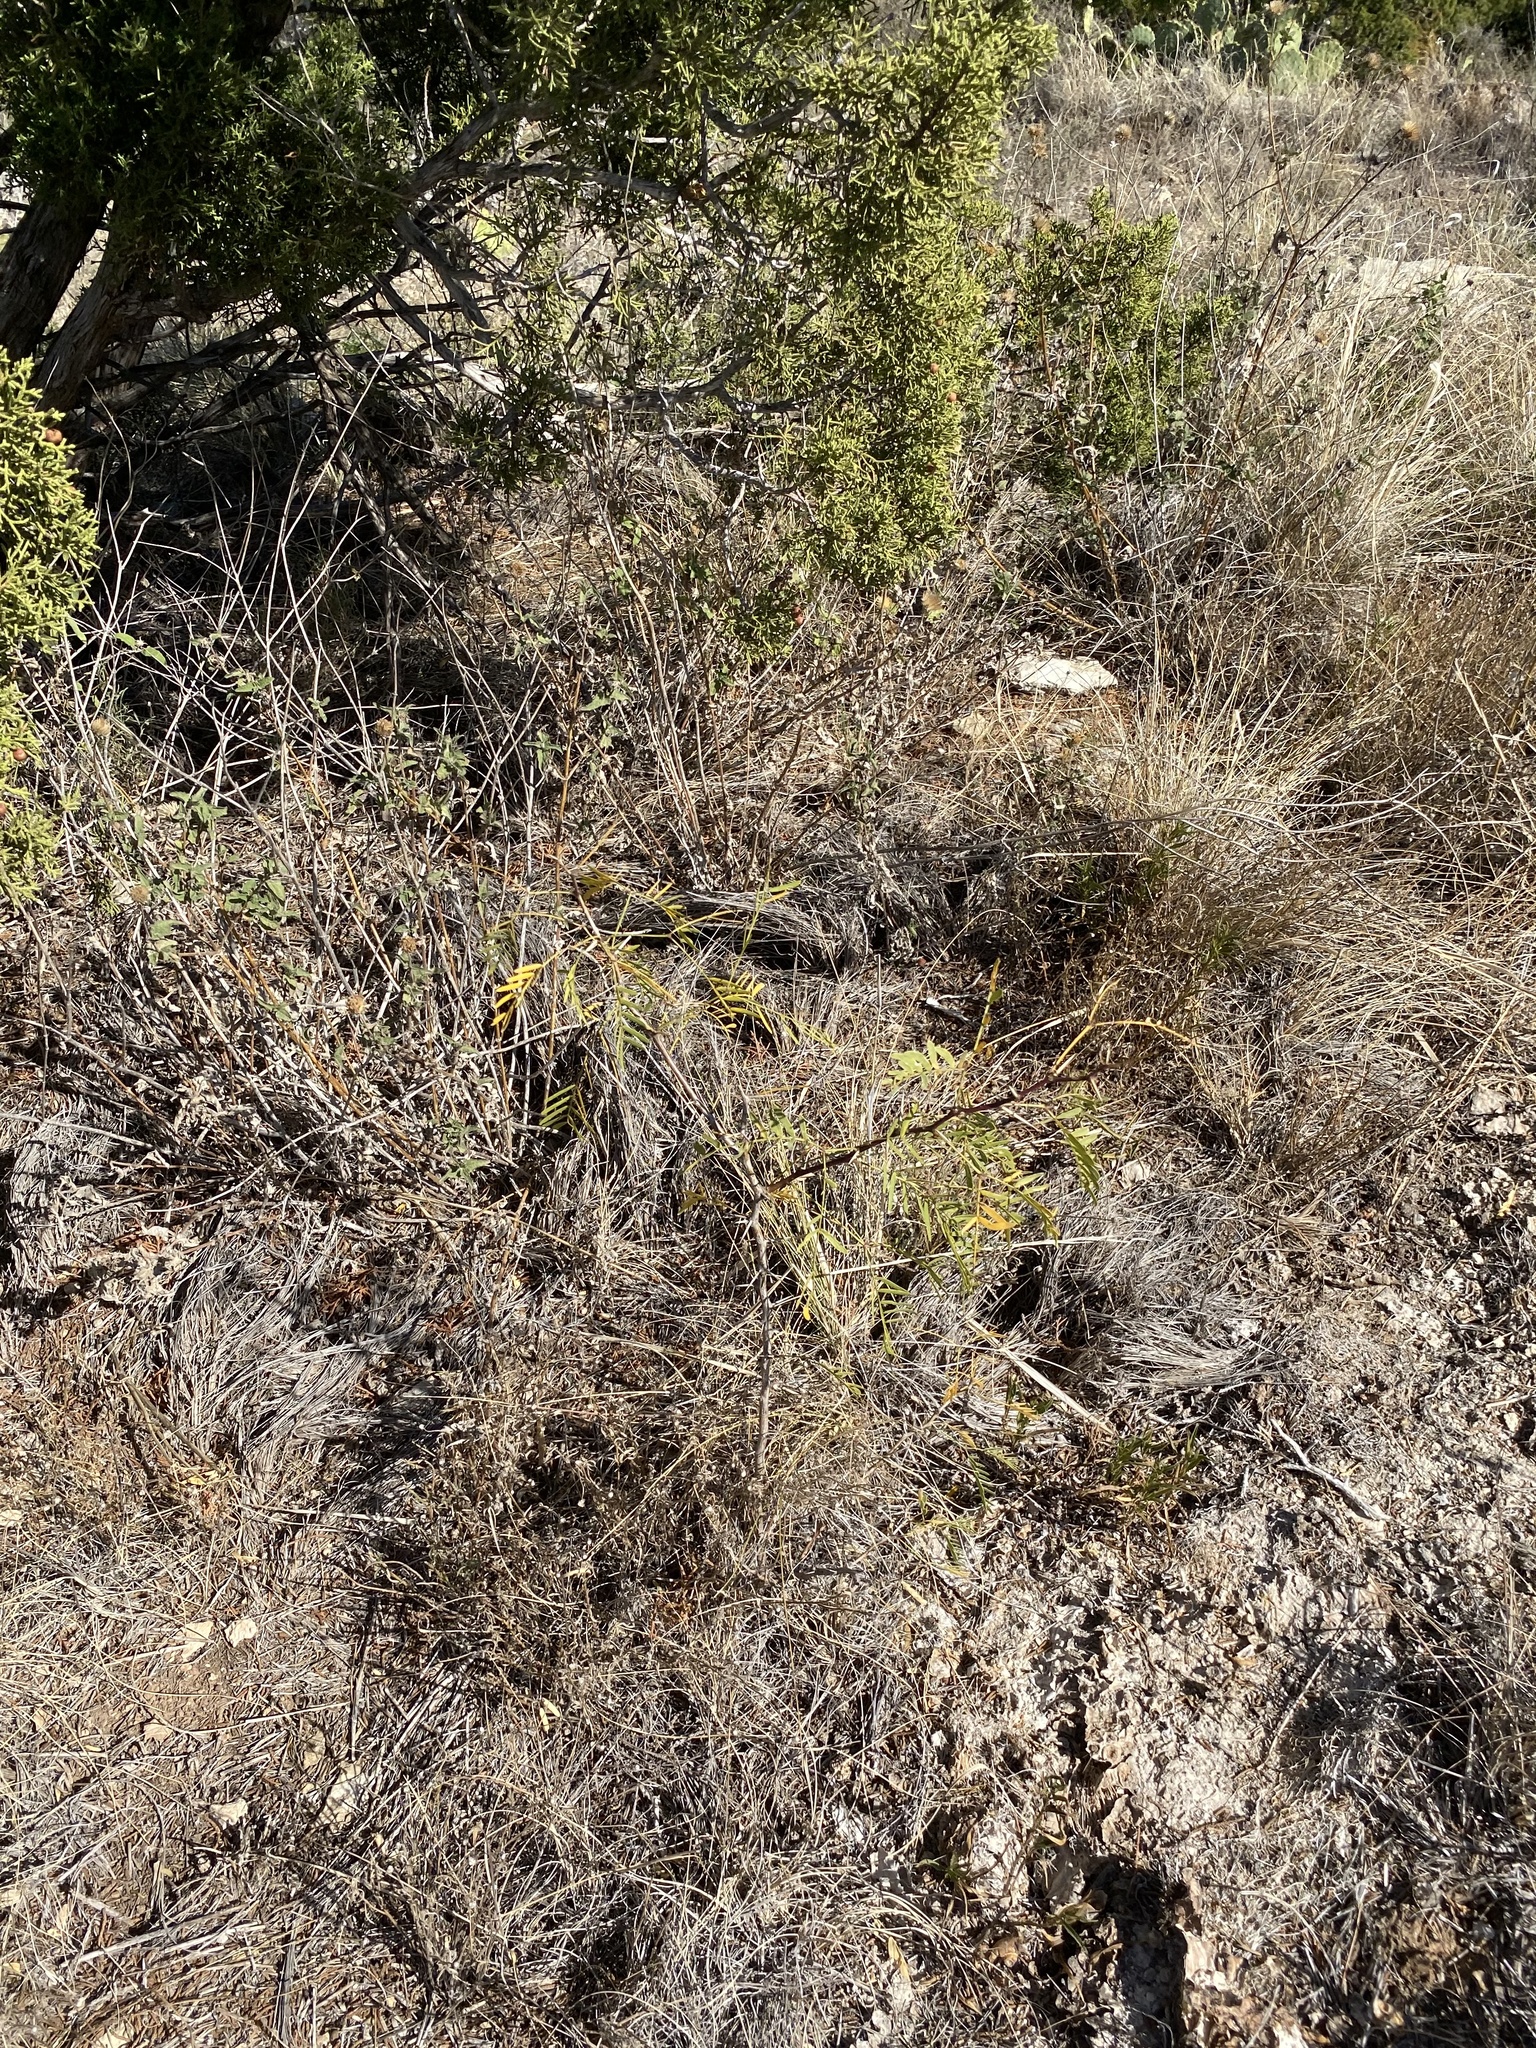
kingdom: Plantae
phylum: Tracheophyta
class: Magnoliopsida
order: Fabales
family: Fabaceae
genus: Prosopis
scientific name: Prosopis glandulosa
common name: Honey mesquite
